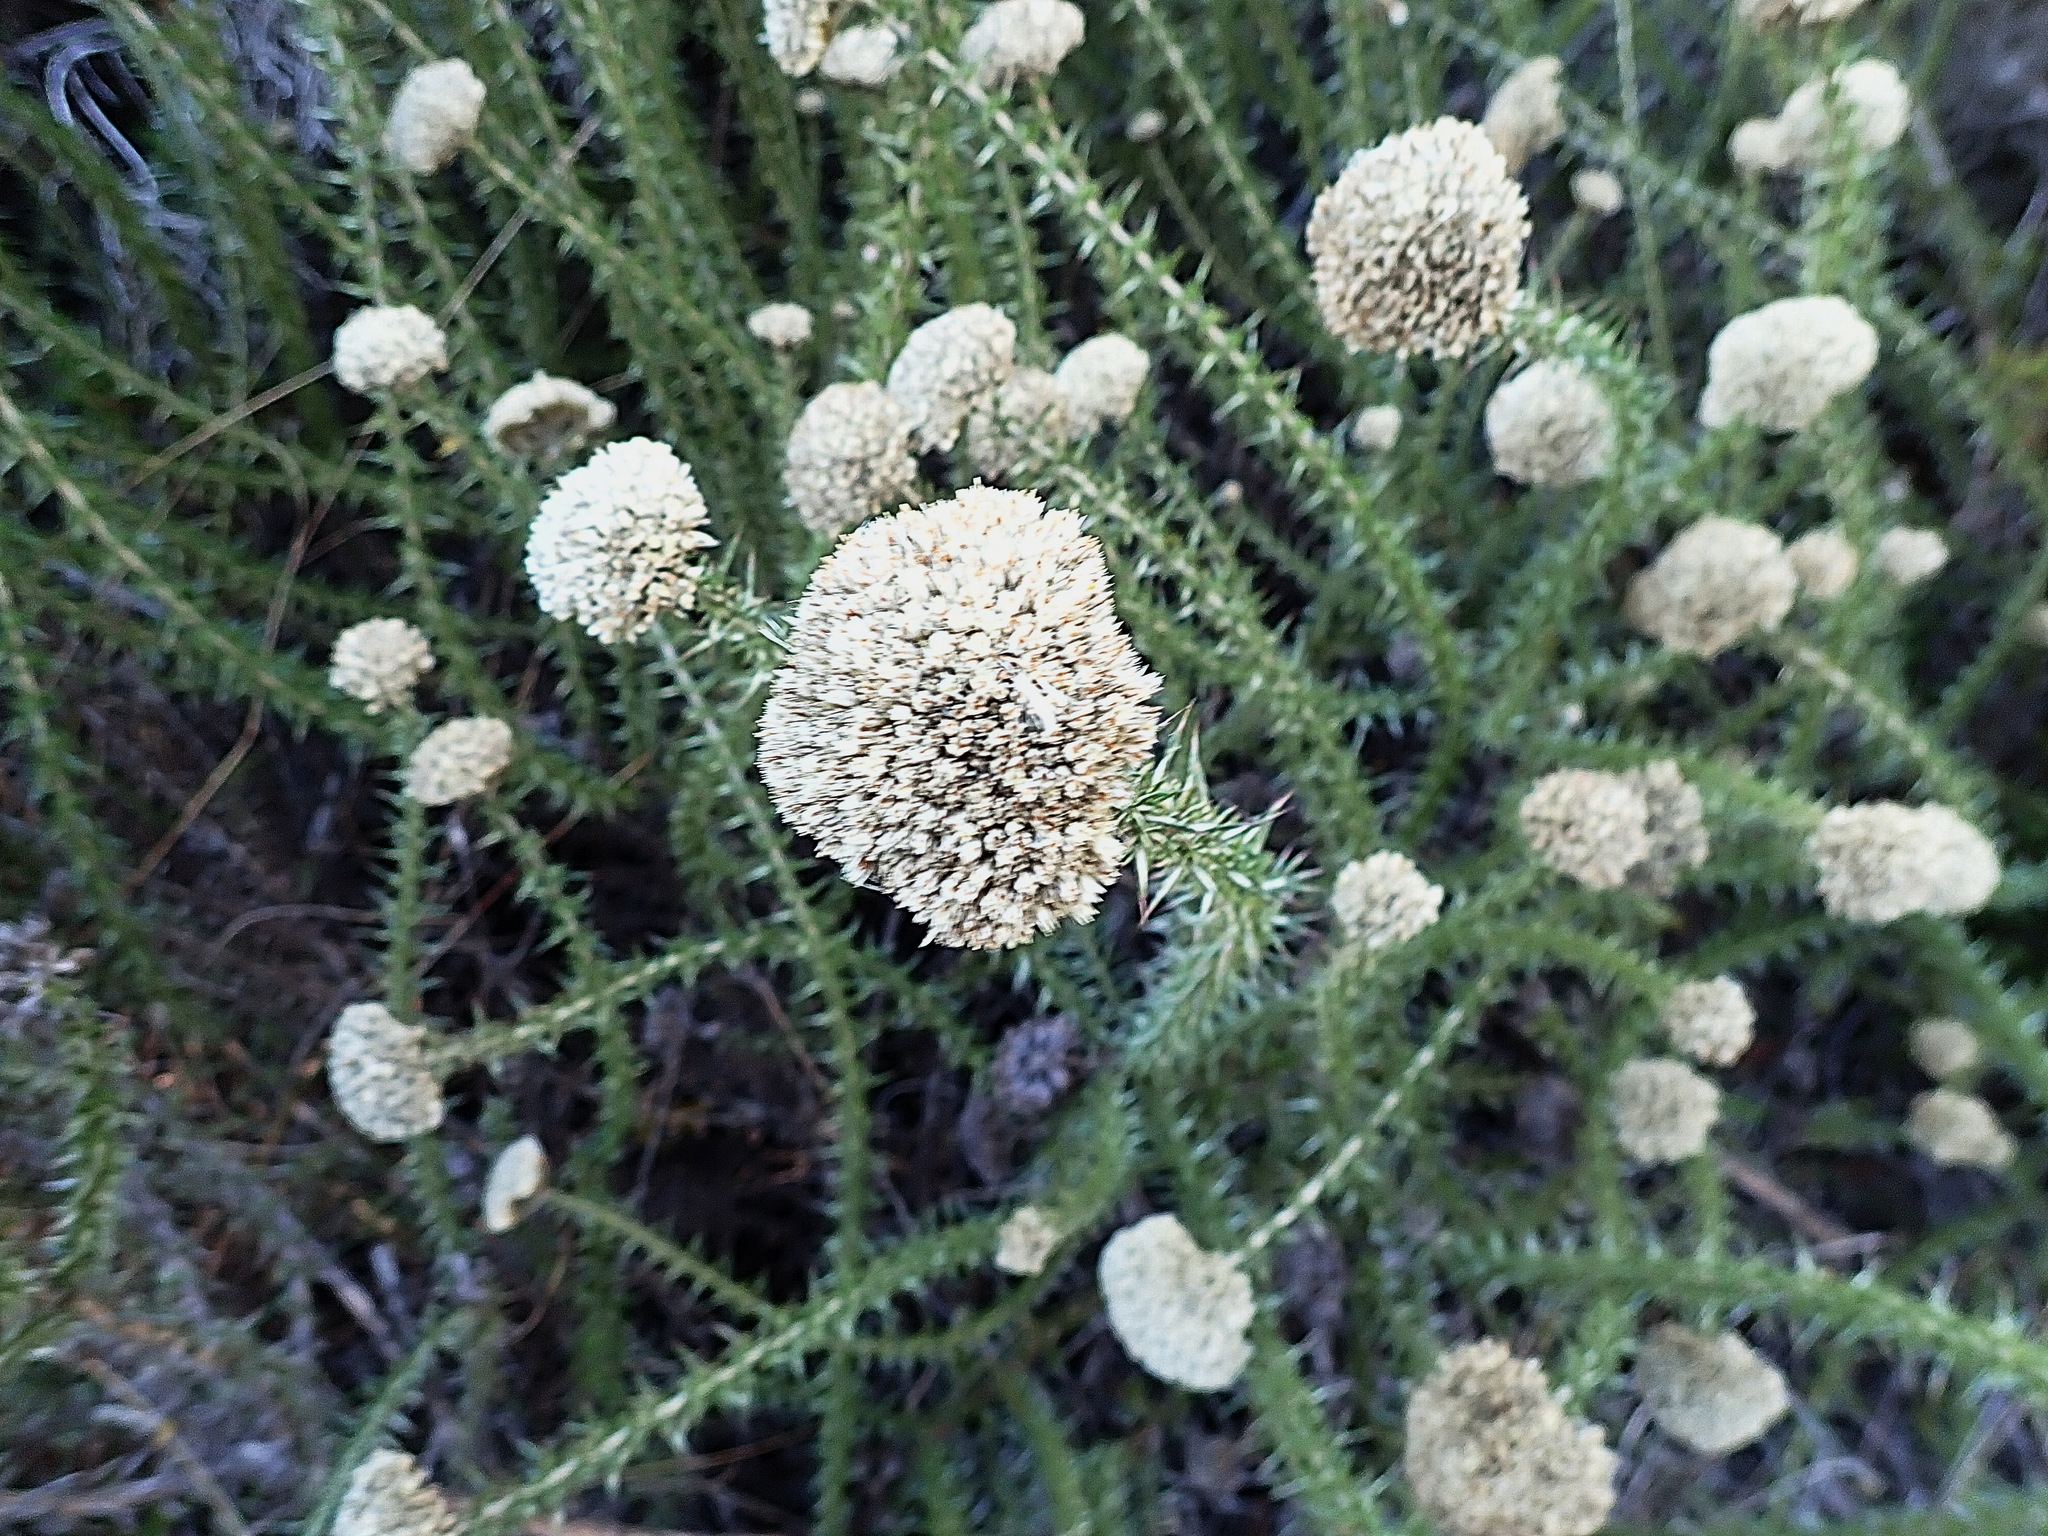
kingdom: Plantae
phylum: Tracheophyta
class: Magnoliopsida
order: Asterales
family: Asteraceae
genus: Metalasia
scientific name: Metalasia acuta
